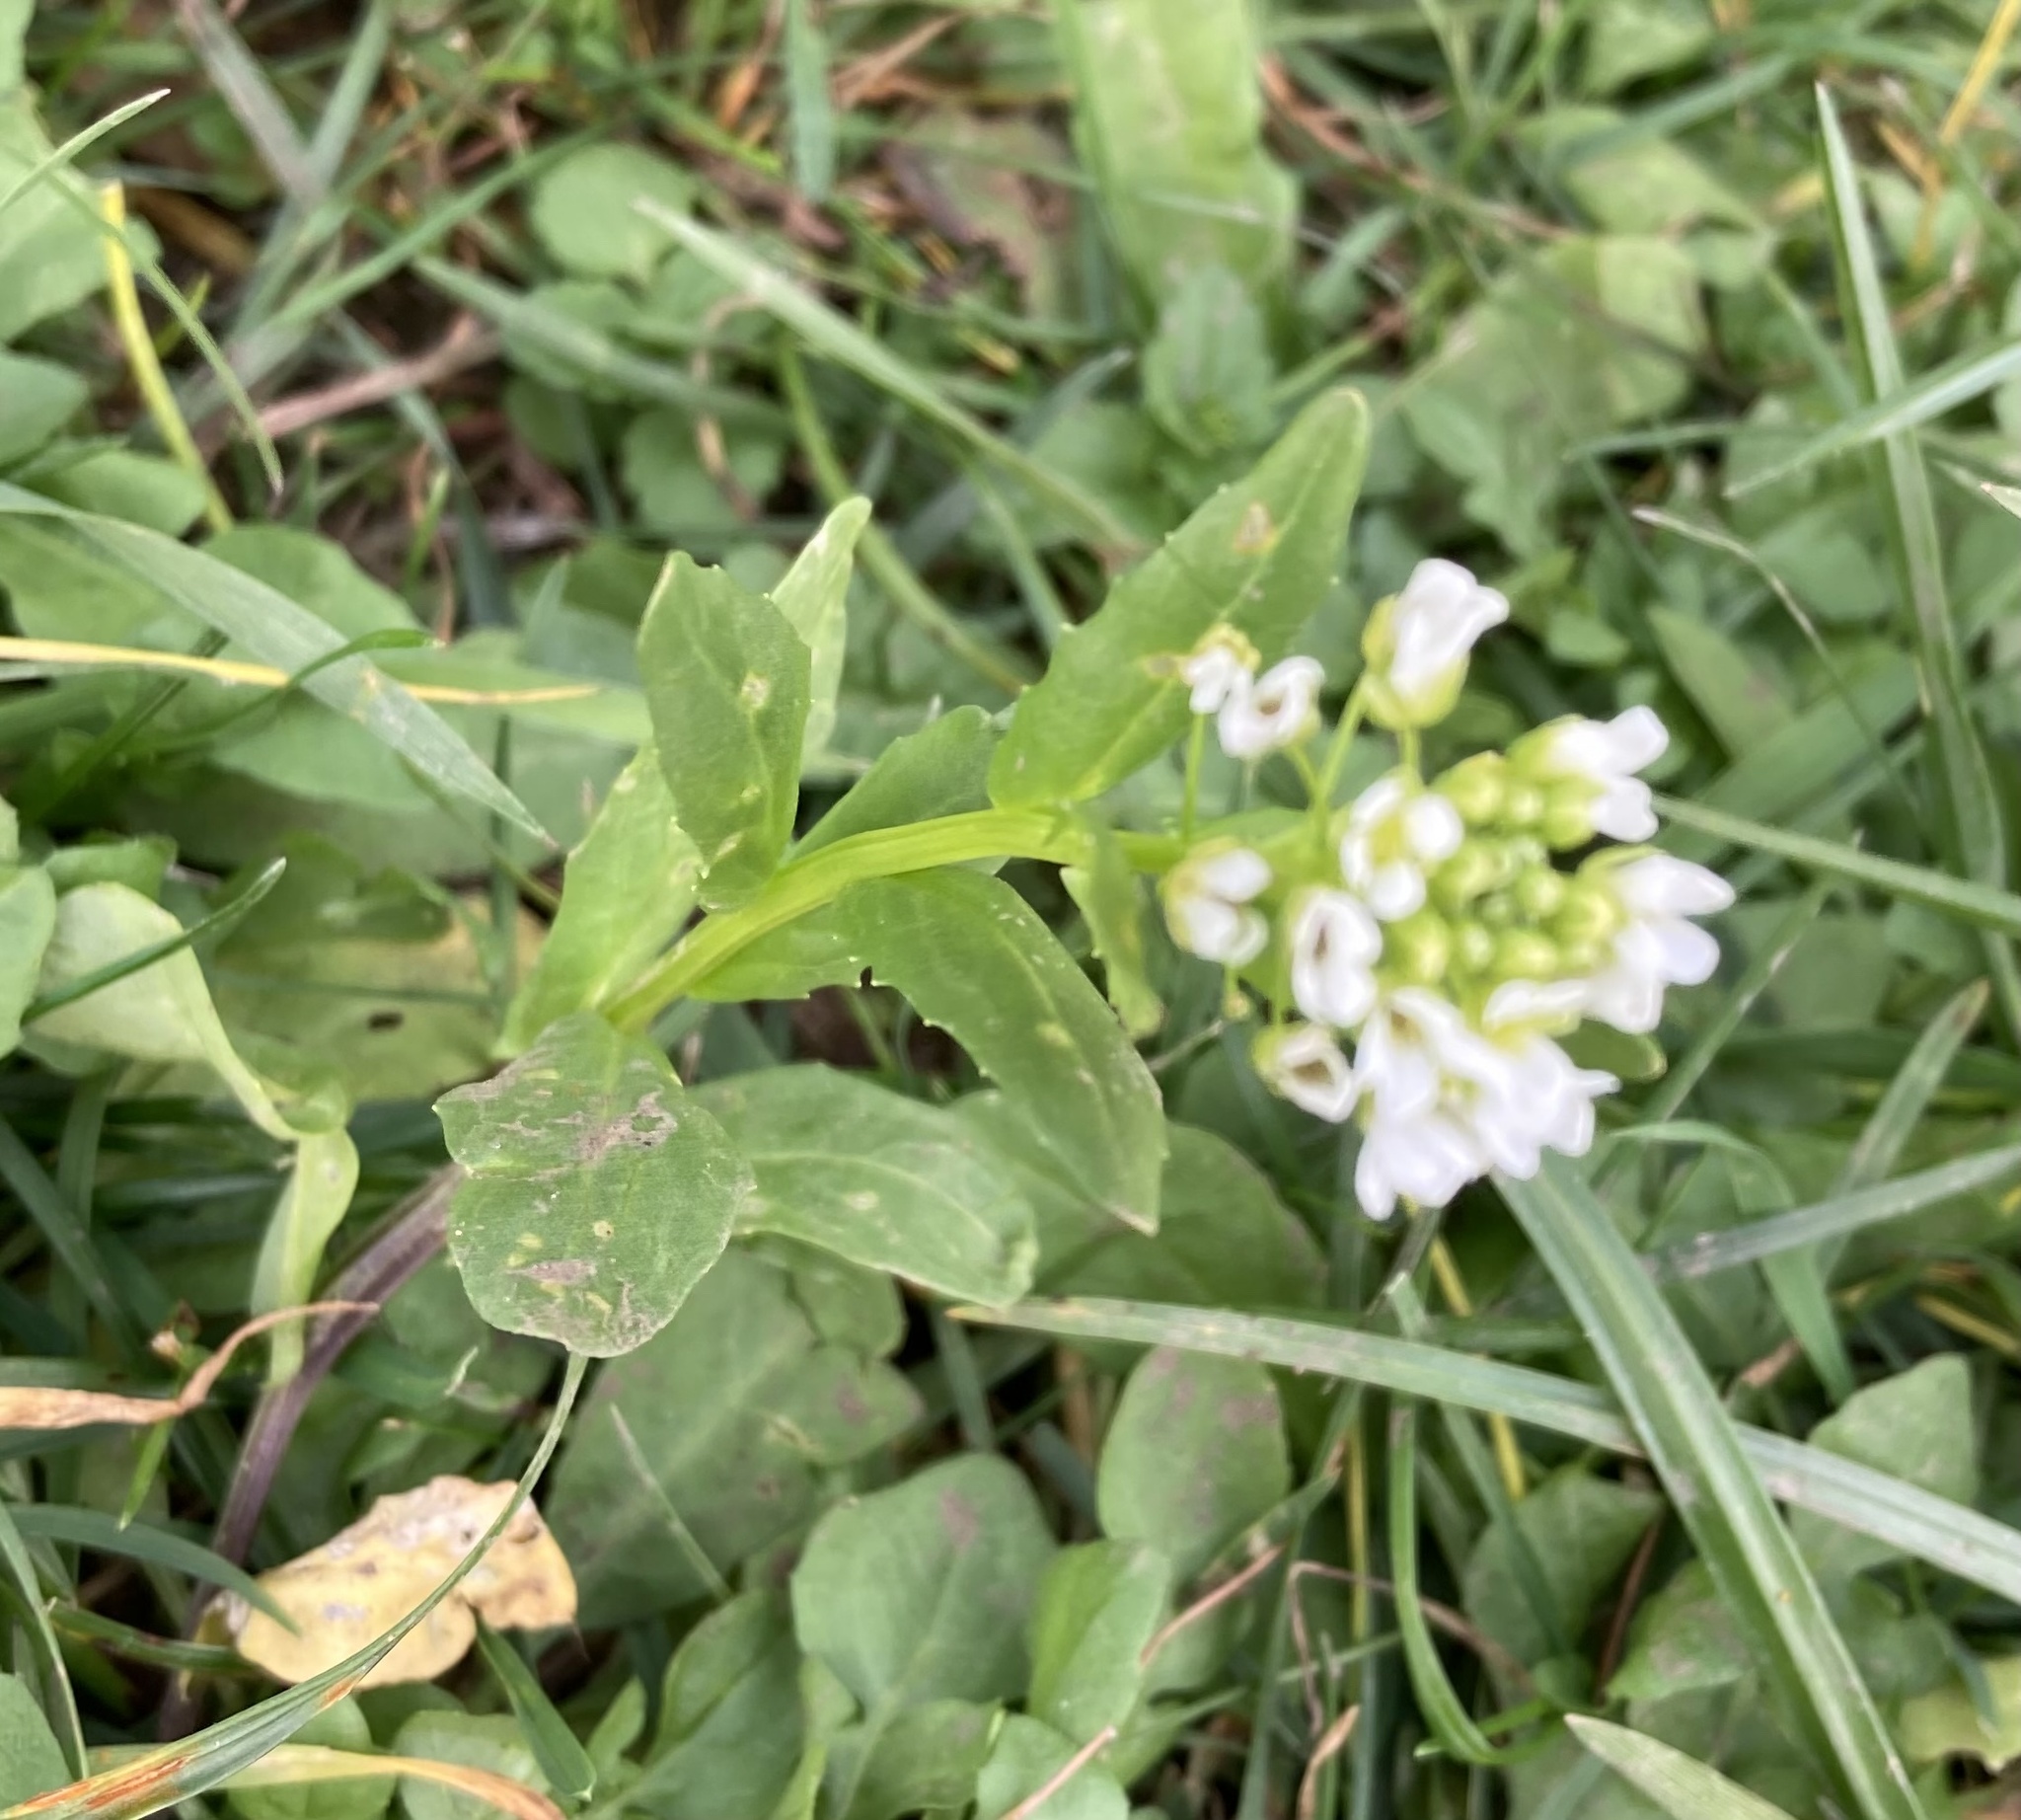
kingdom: Plantae
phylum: Tracheophyta
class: Magnoliopsida
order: Brassicales
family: Brassicaceae
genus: Thlaspi
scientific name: Thlaspi arvense
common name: Field pennycress
